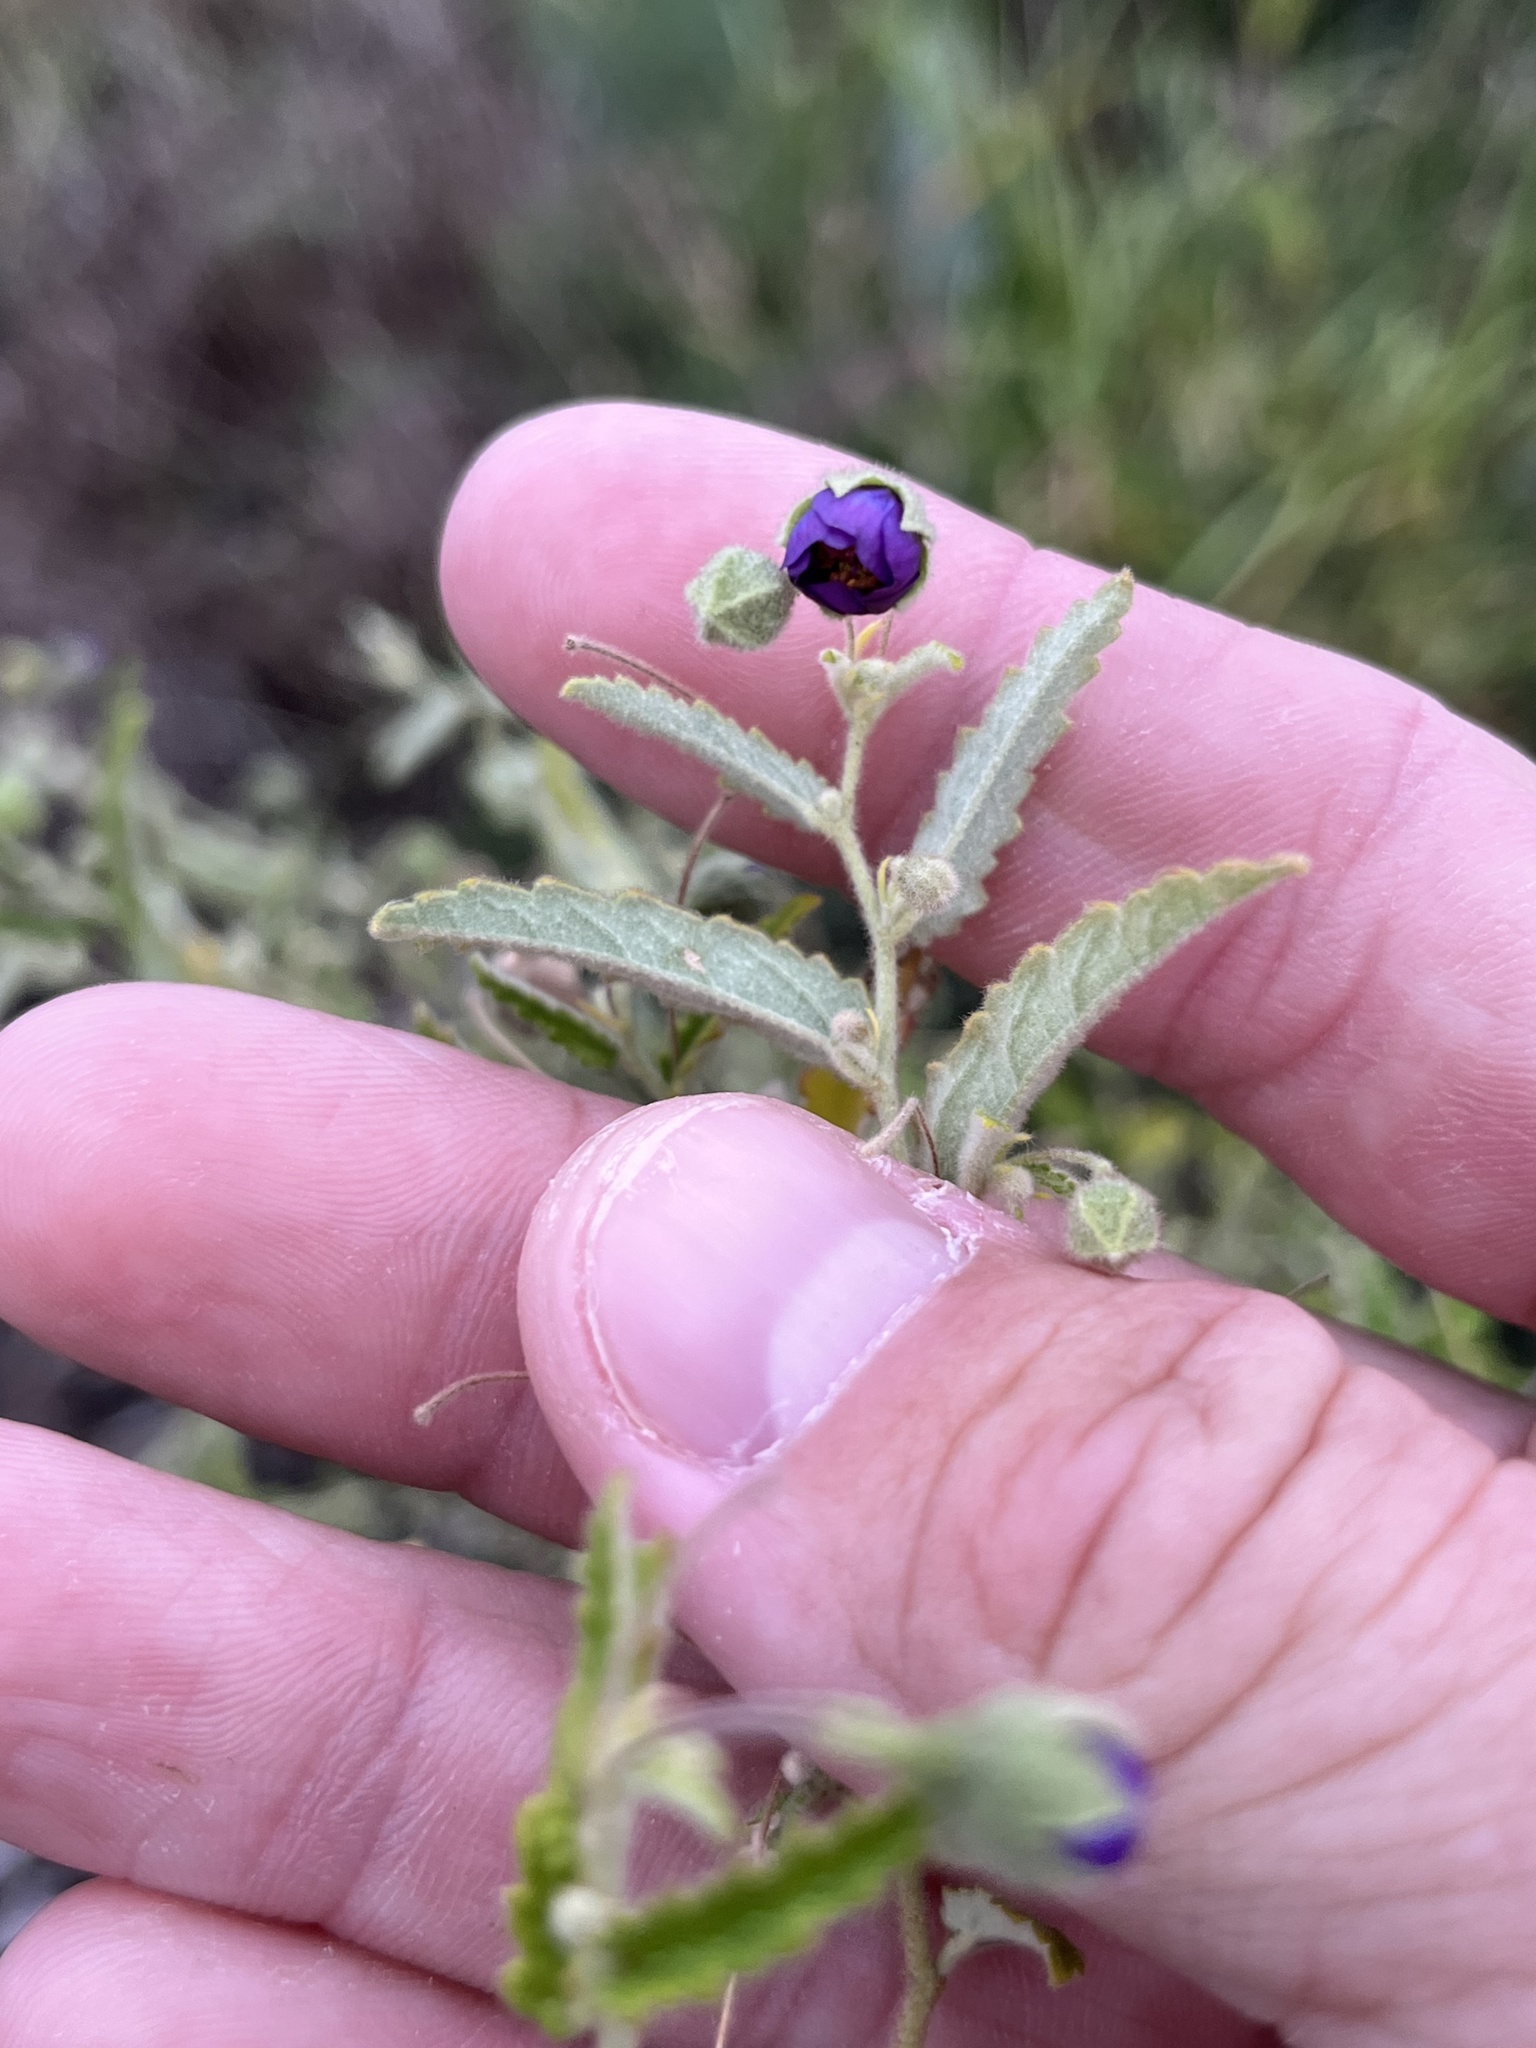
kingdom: Plantae
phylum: Tracheophyta
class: Magnoliopsida
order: Malvales
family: Malvaceae
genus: Meximalva
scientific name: Meximalva filipes
